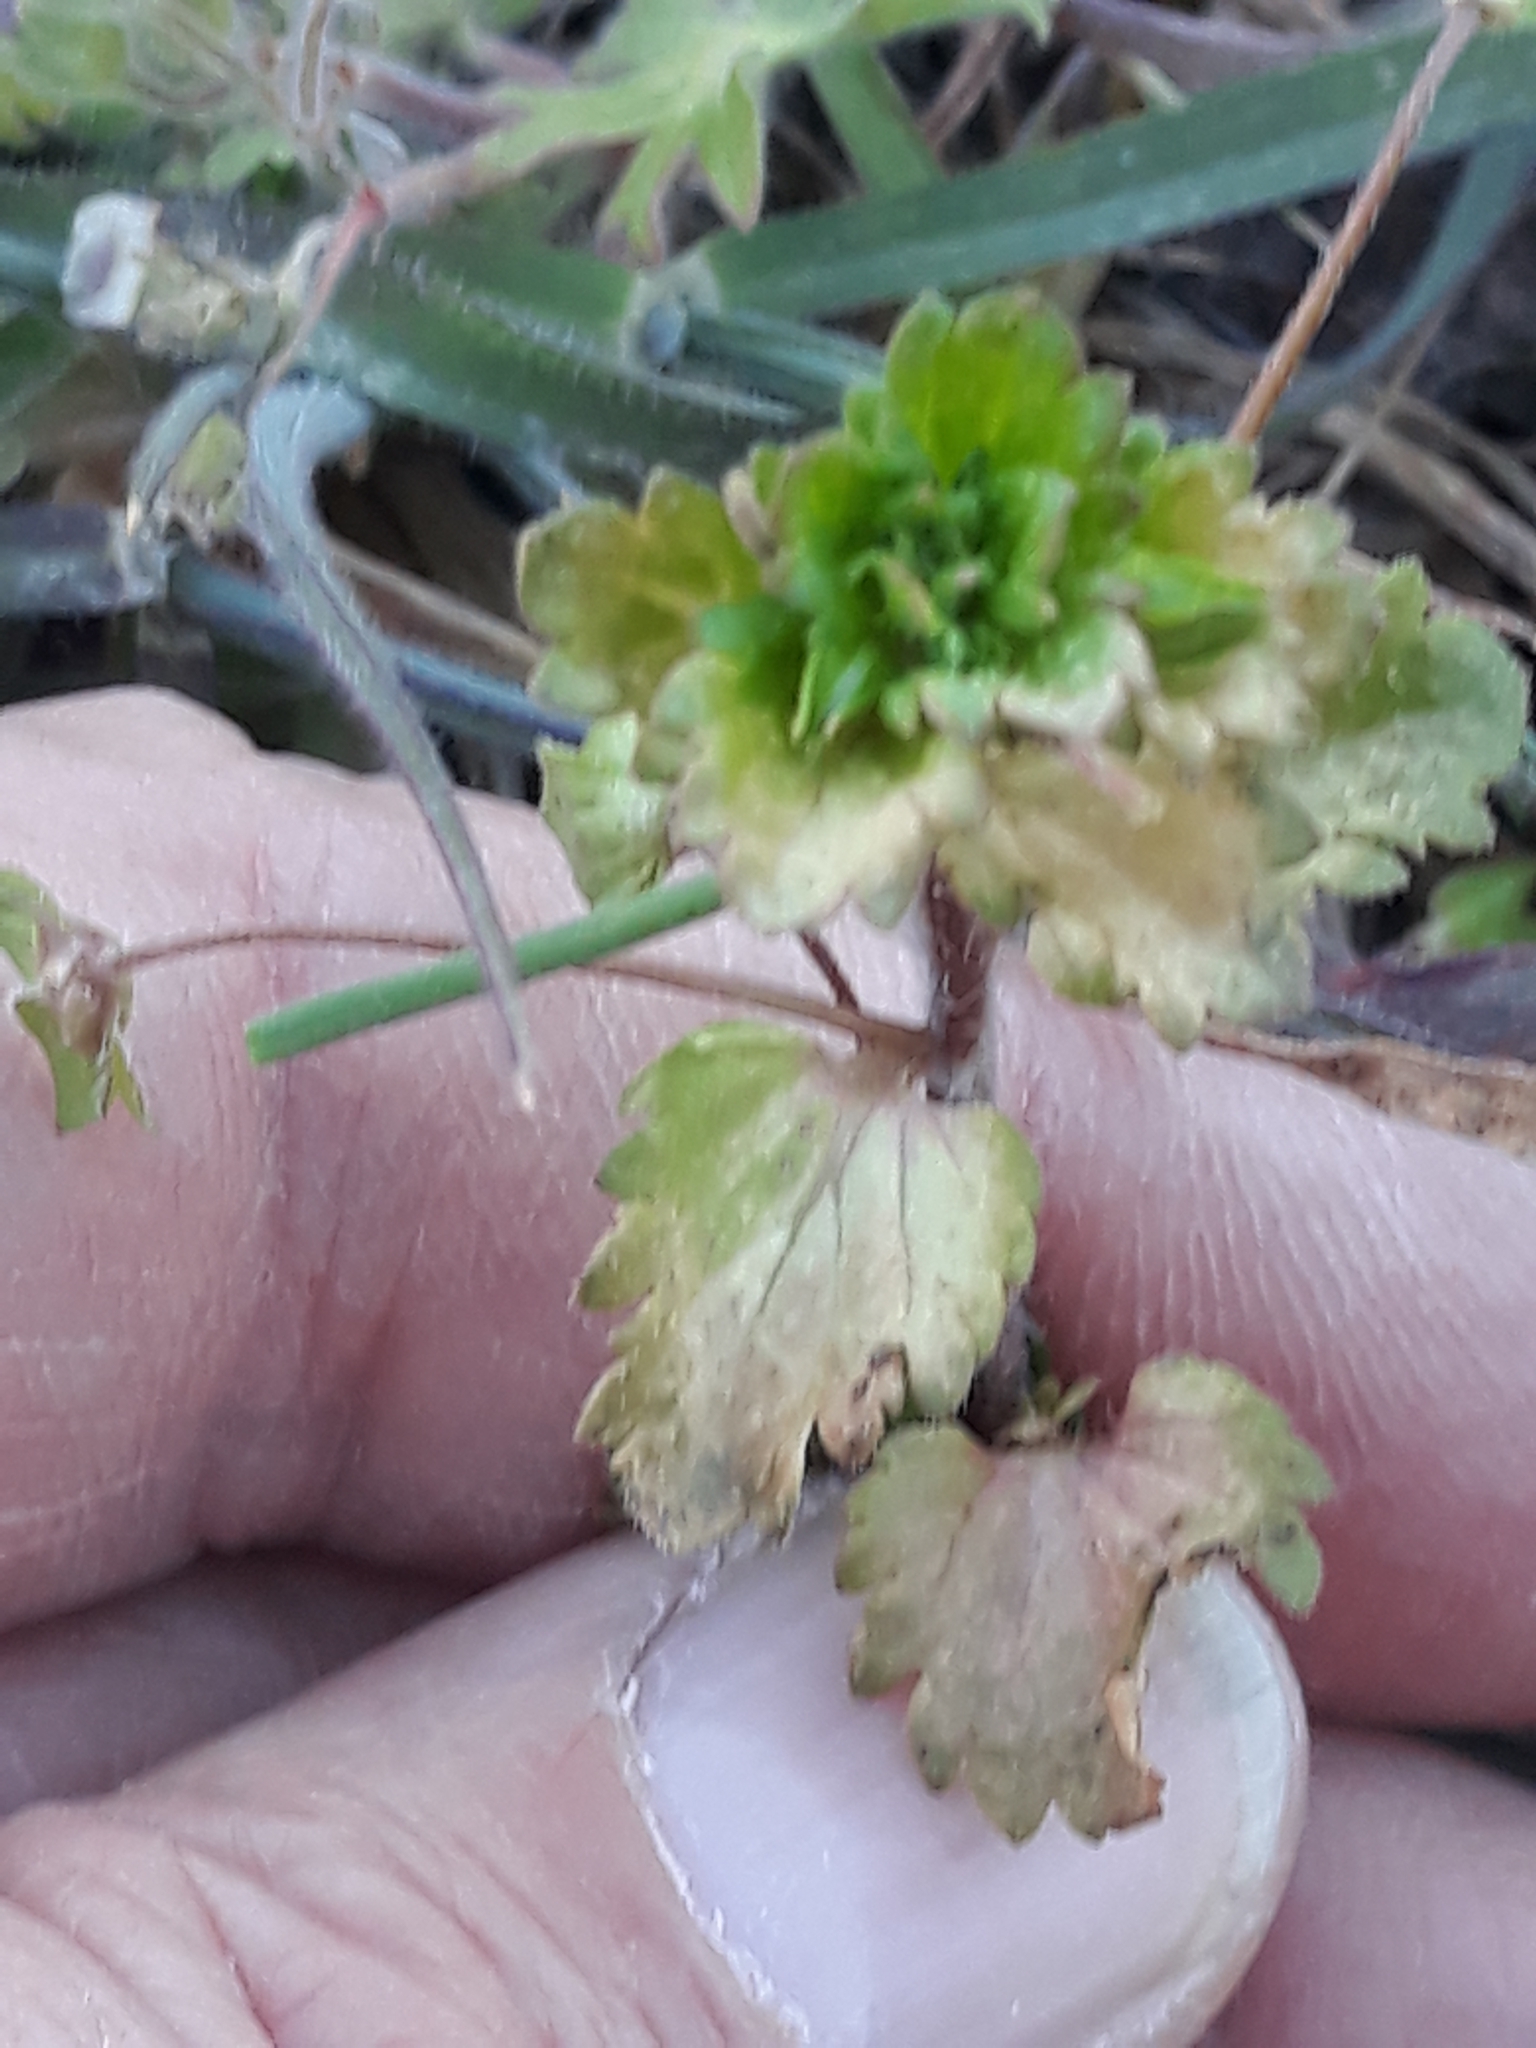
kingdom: Plantae
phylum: Tracheophyta
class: Magnoliopsida
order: Lamiales
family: Plantaginaceae
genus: Veronica
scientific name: Veronica persica
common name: Common field-speedwell
